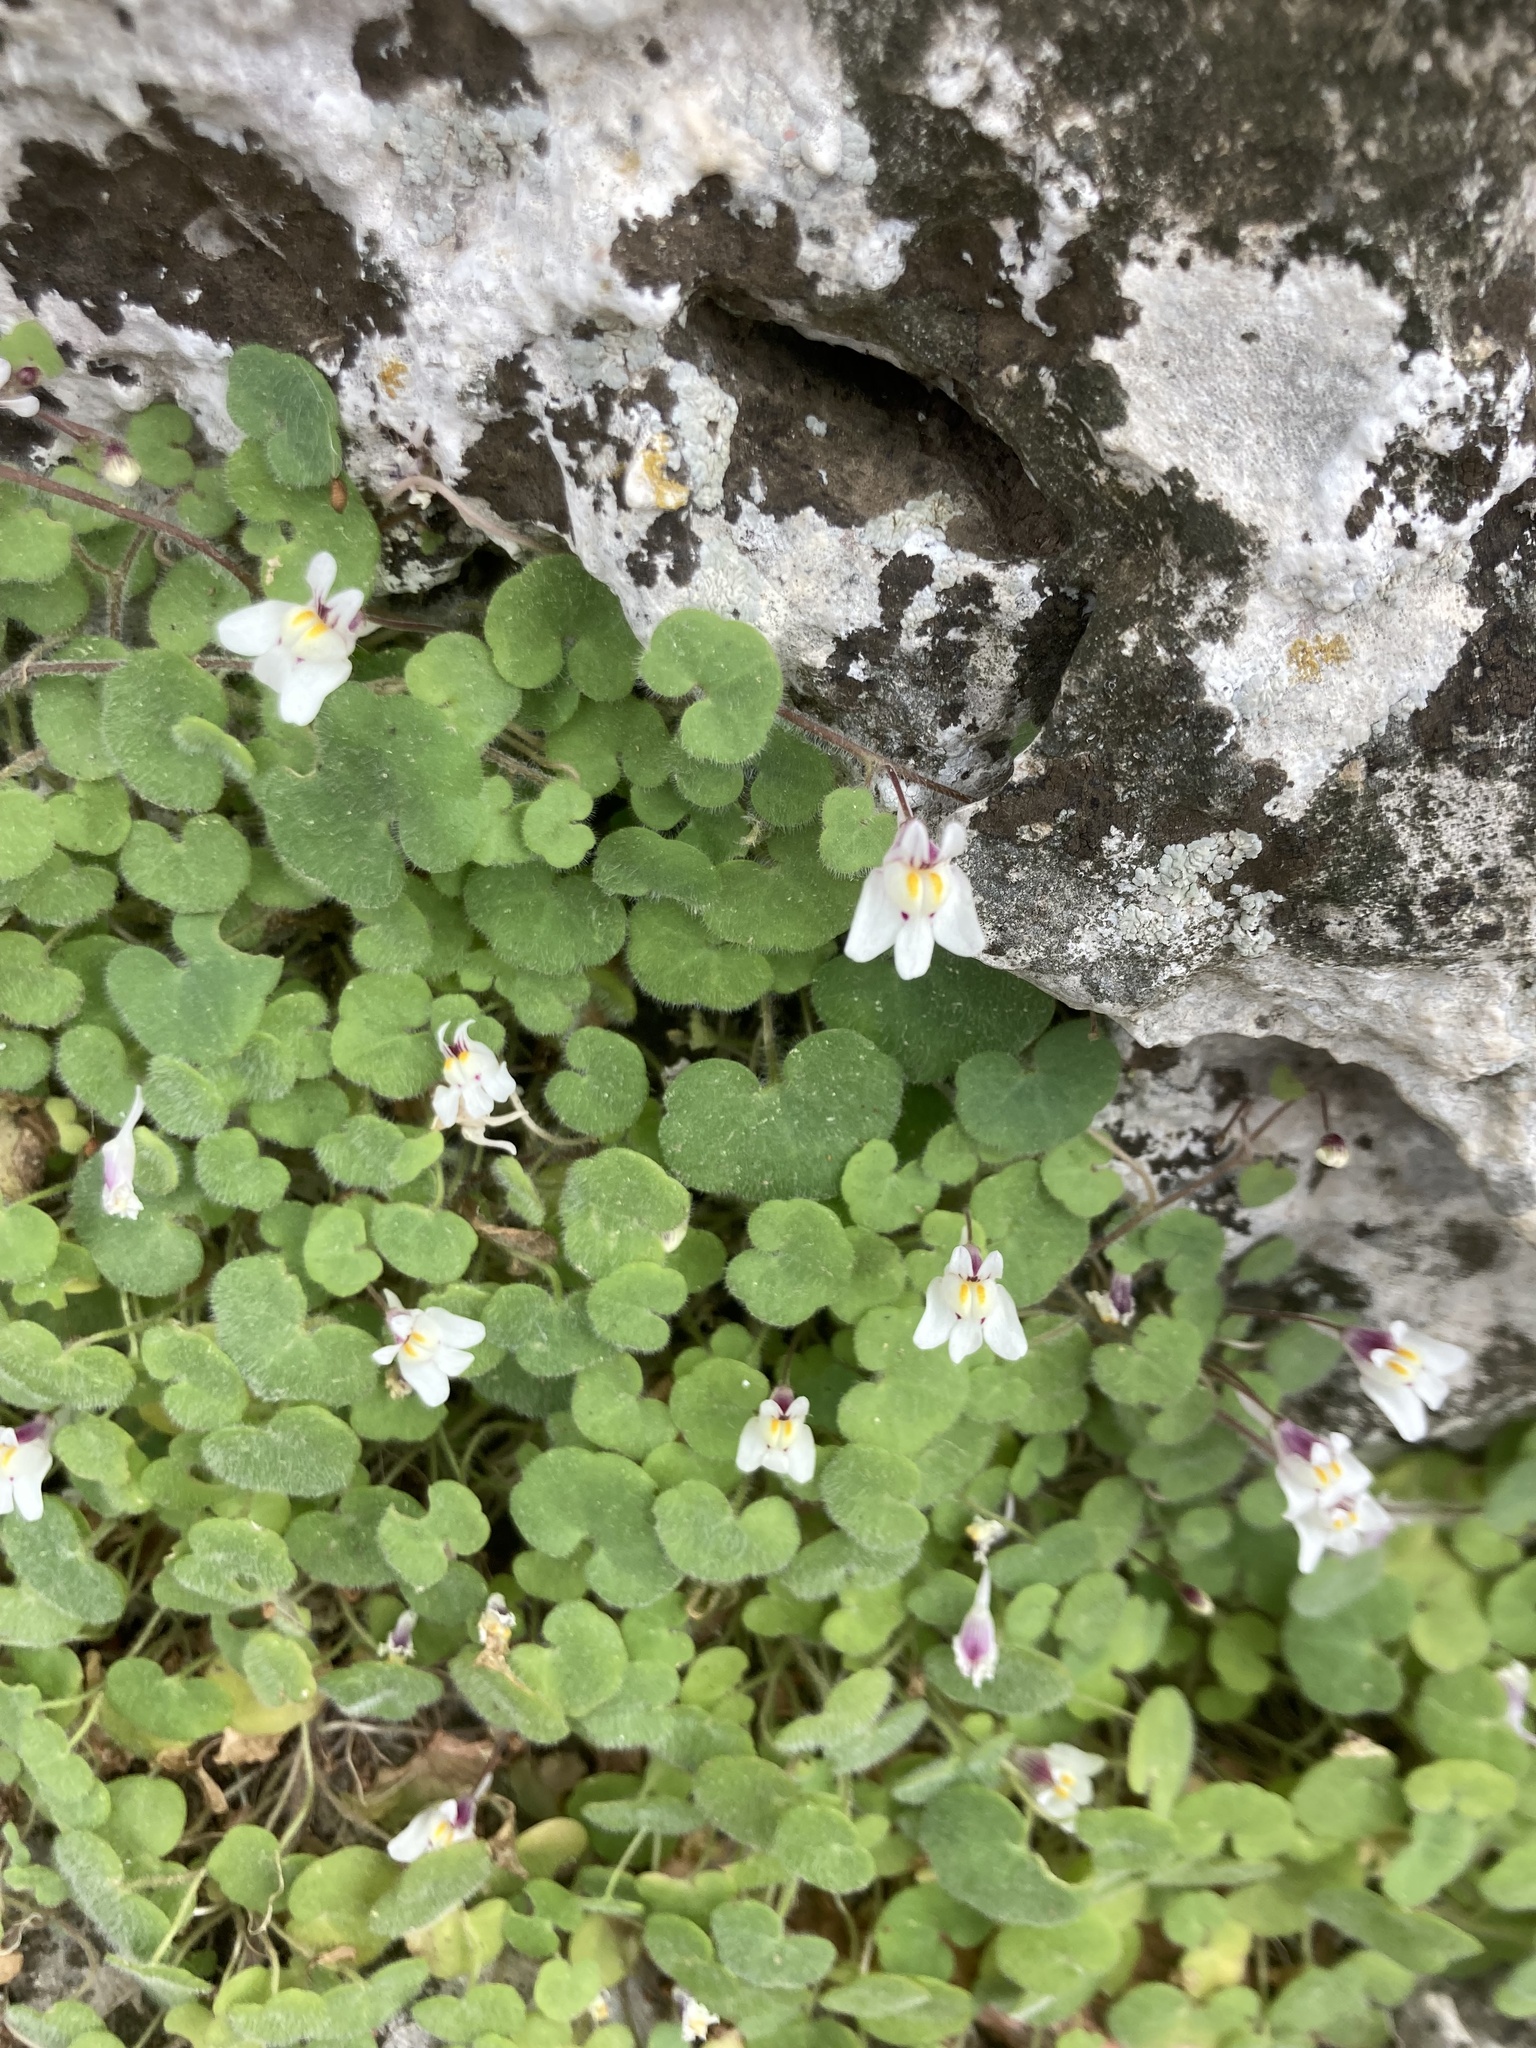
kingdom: Plantae
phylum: Tracheophyta
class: Magnoliopsida
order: Lamiales
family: Plantaginaceae
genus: Cymbalaria
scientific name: Cymbalaria acutiloba
